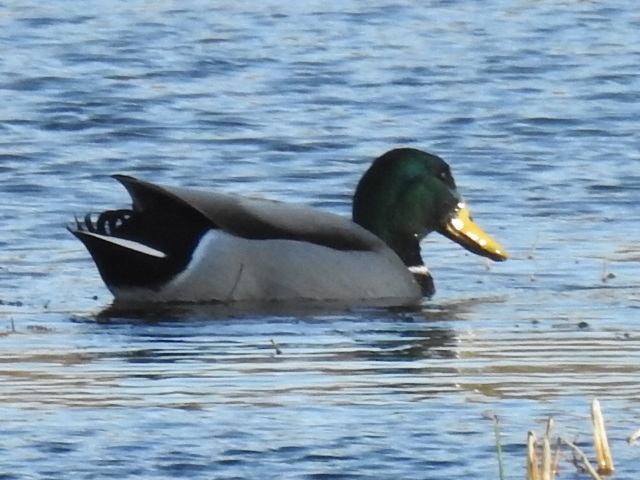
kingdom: Animalia
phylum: Chordata
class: Aves
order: Anseriformes
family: Anatidae
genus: Anas
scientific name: Anas platyrhynchos
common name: Mallard
